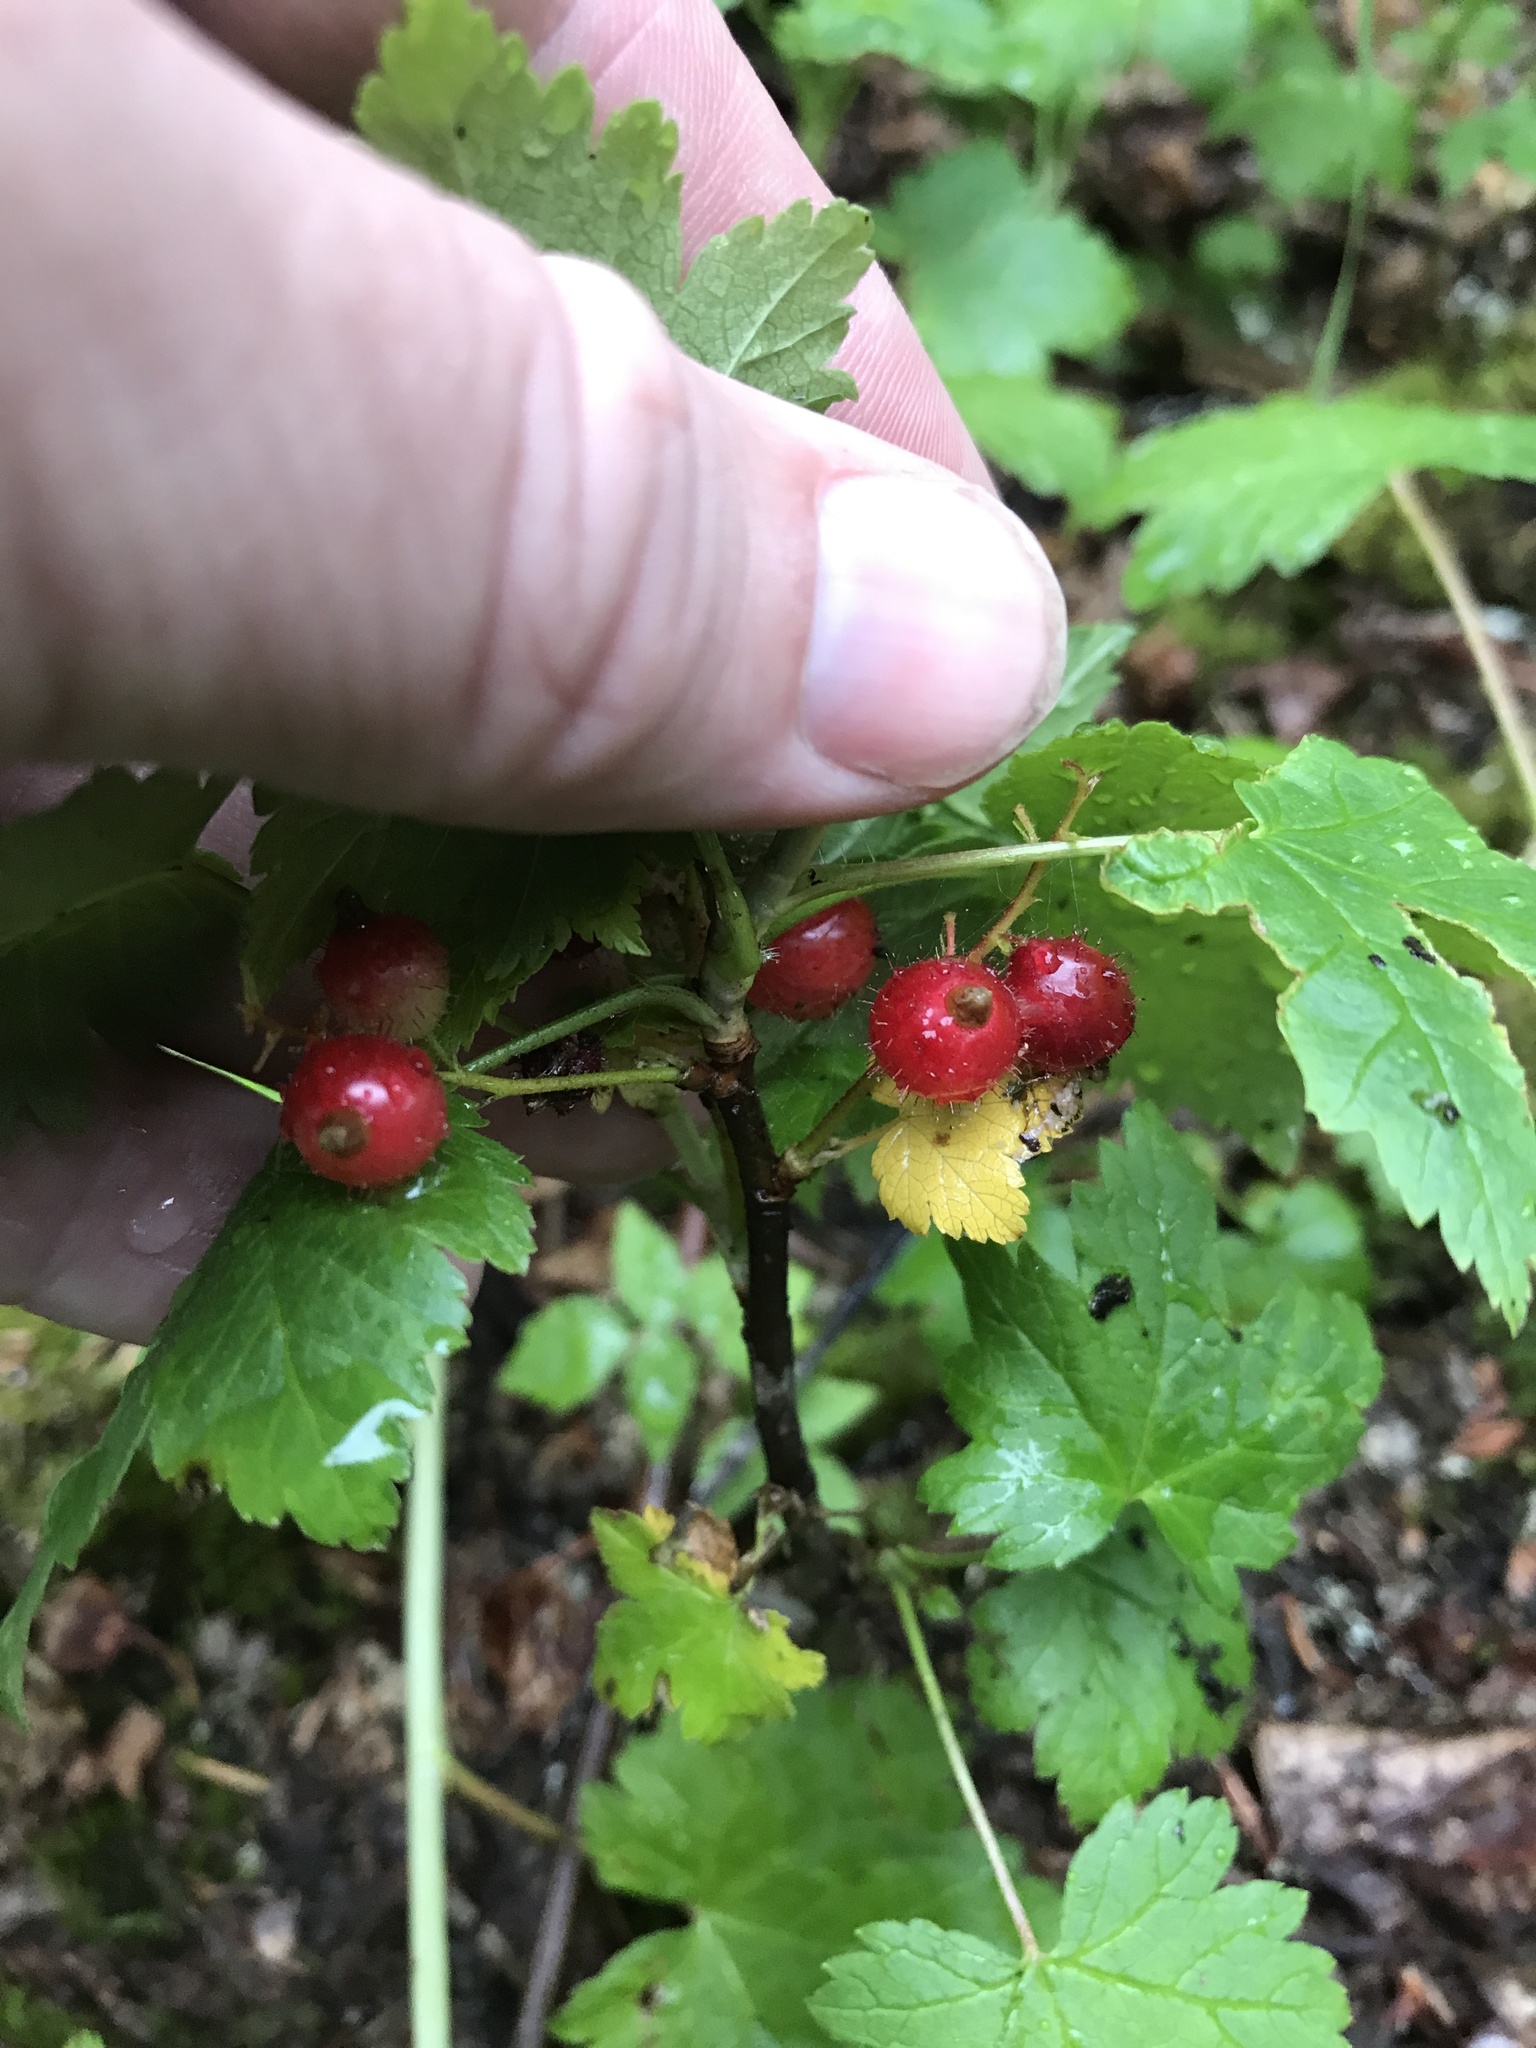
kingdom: Plantae
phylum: Tracheophyta
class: Magnoliopsida
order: Saxifragales
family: Grossulariaceae
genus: Ribes
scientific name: Ribes glandulosum
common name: Skunk currant
